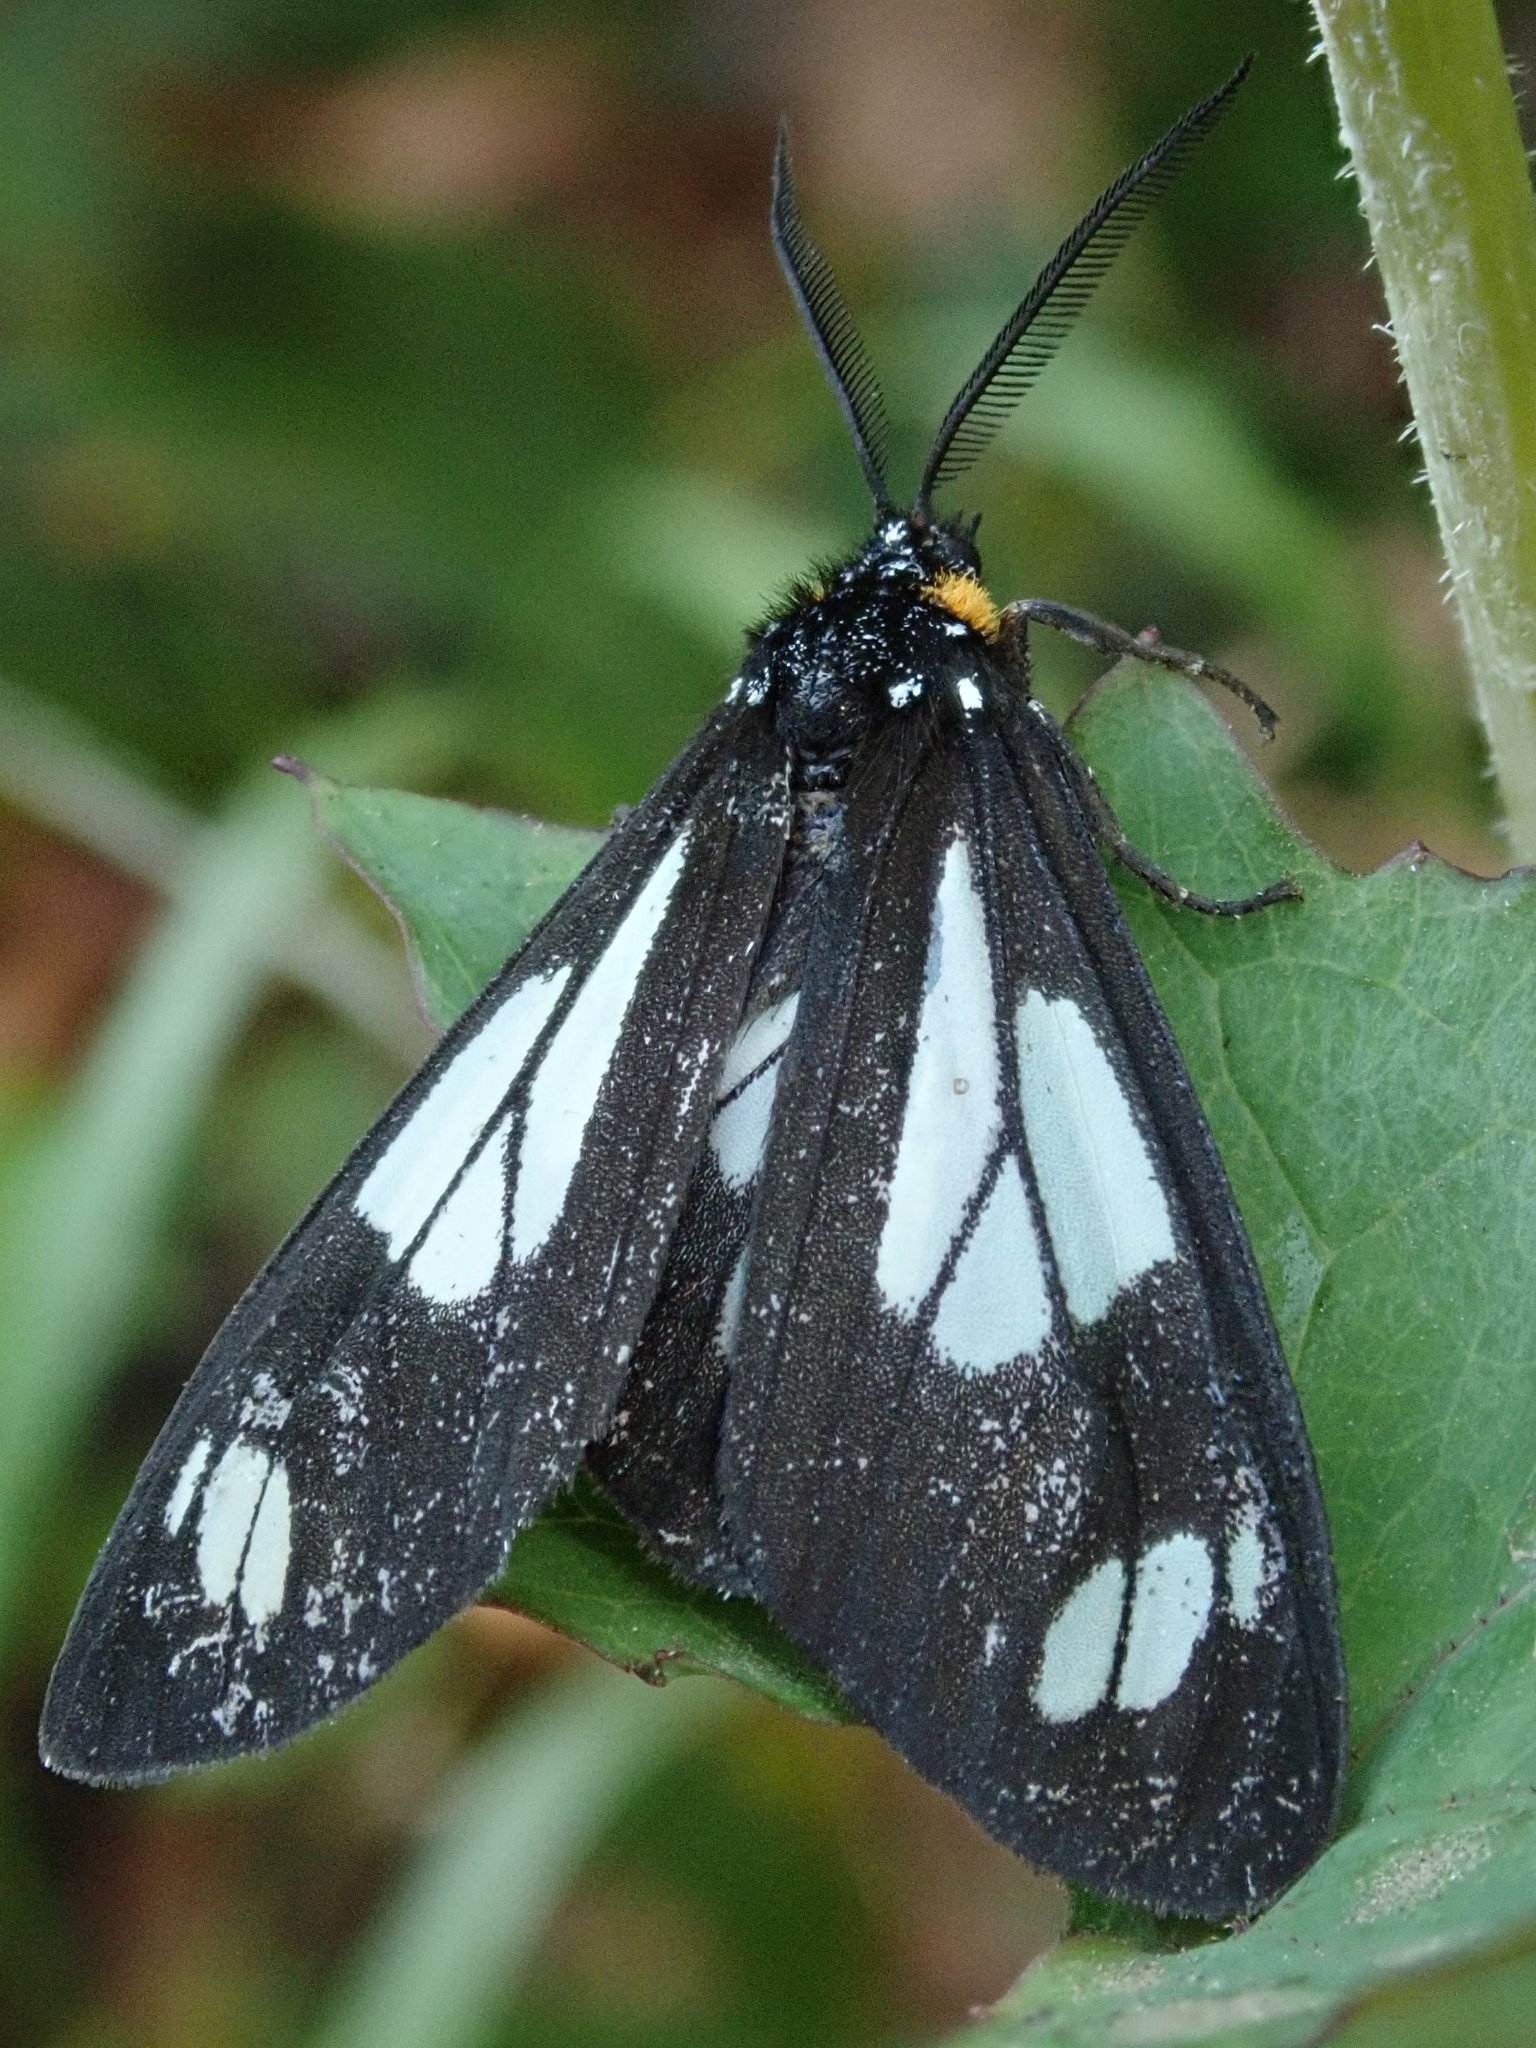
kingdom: Animalia
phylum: Arthropoda
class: Insecta
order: Lepidoptera
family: Erebidae
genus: Gnophaela
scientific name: Gnophaela vermiculata
